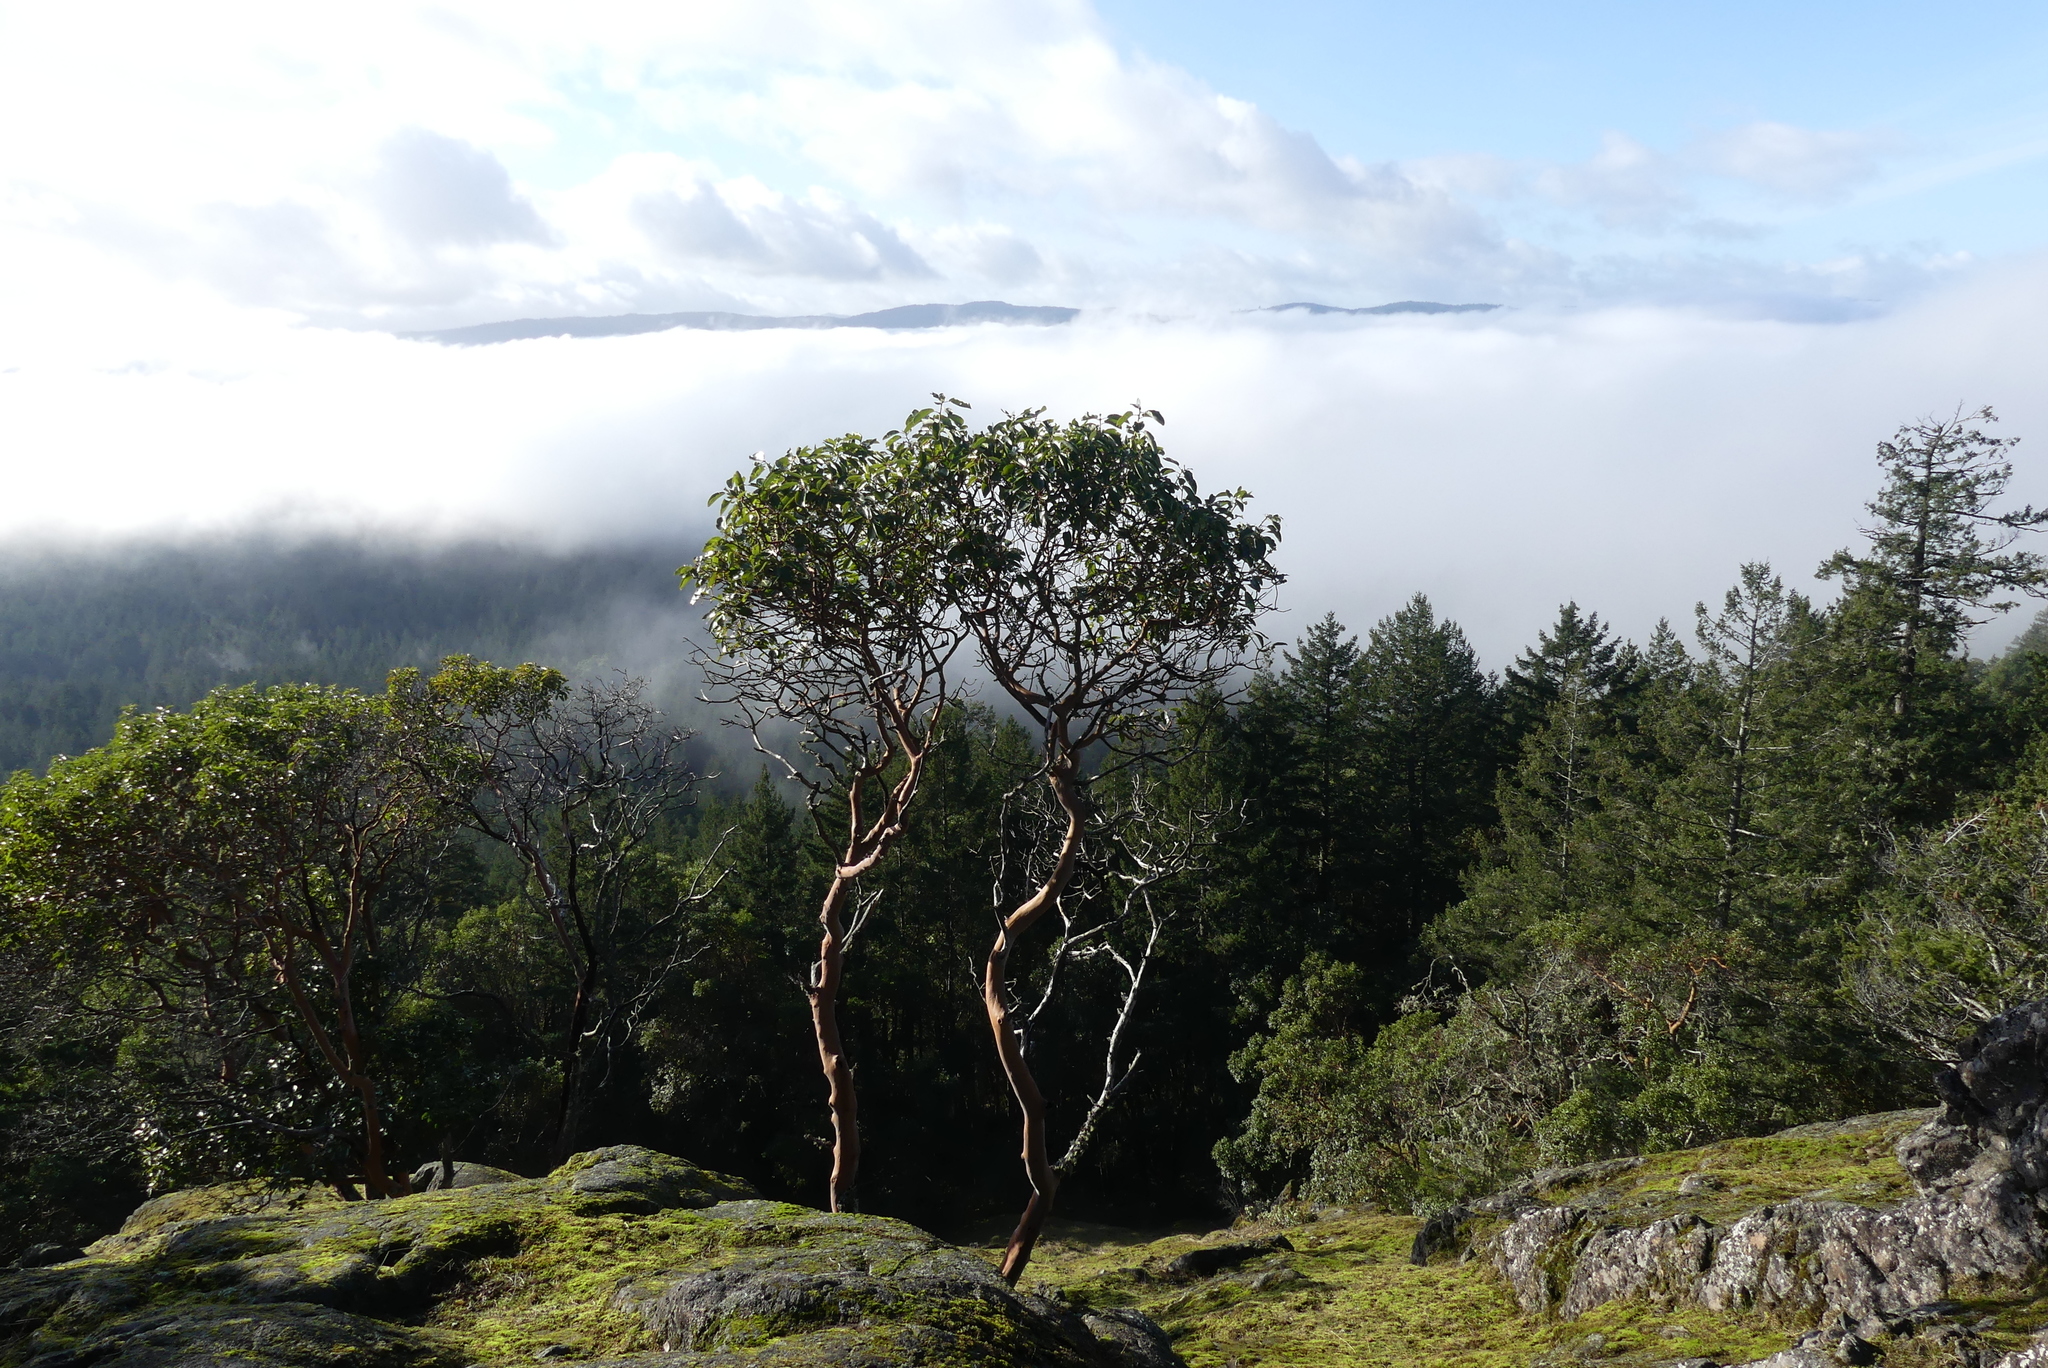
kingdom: Plantae
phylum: Tracheophyta
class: Magnoliopsida
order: Ericales
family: Ericaceae
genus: Arbutus
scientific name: Arbutus menziesii
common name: Pacific madrone
